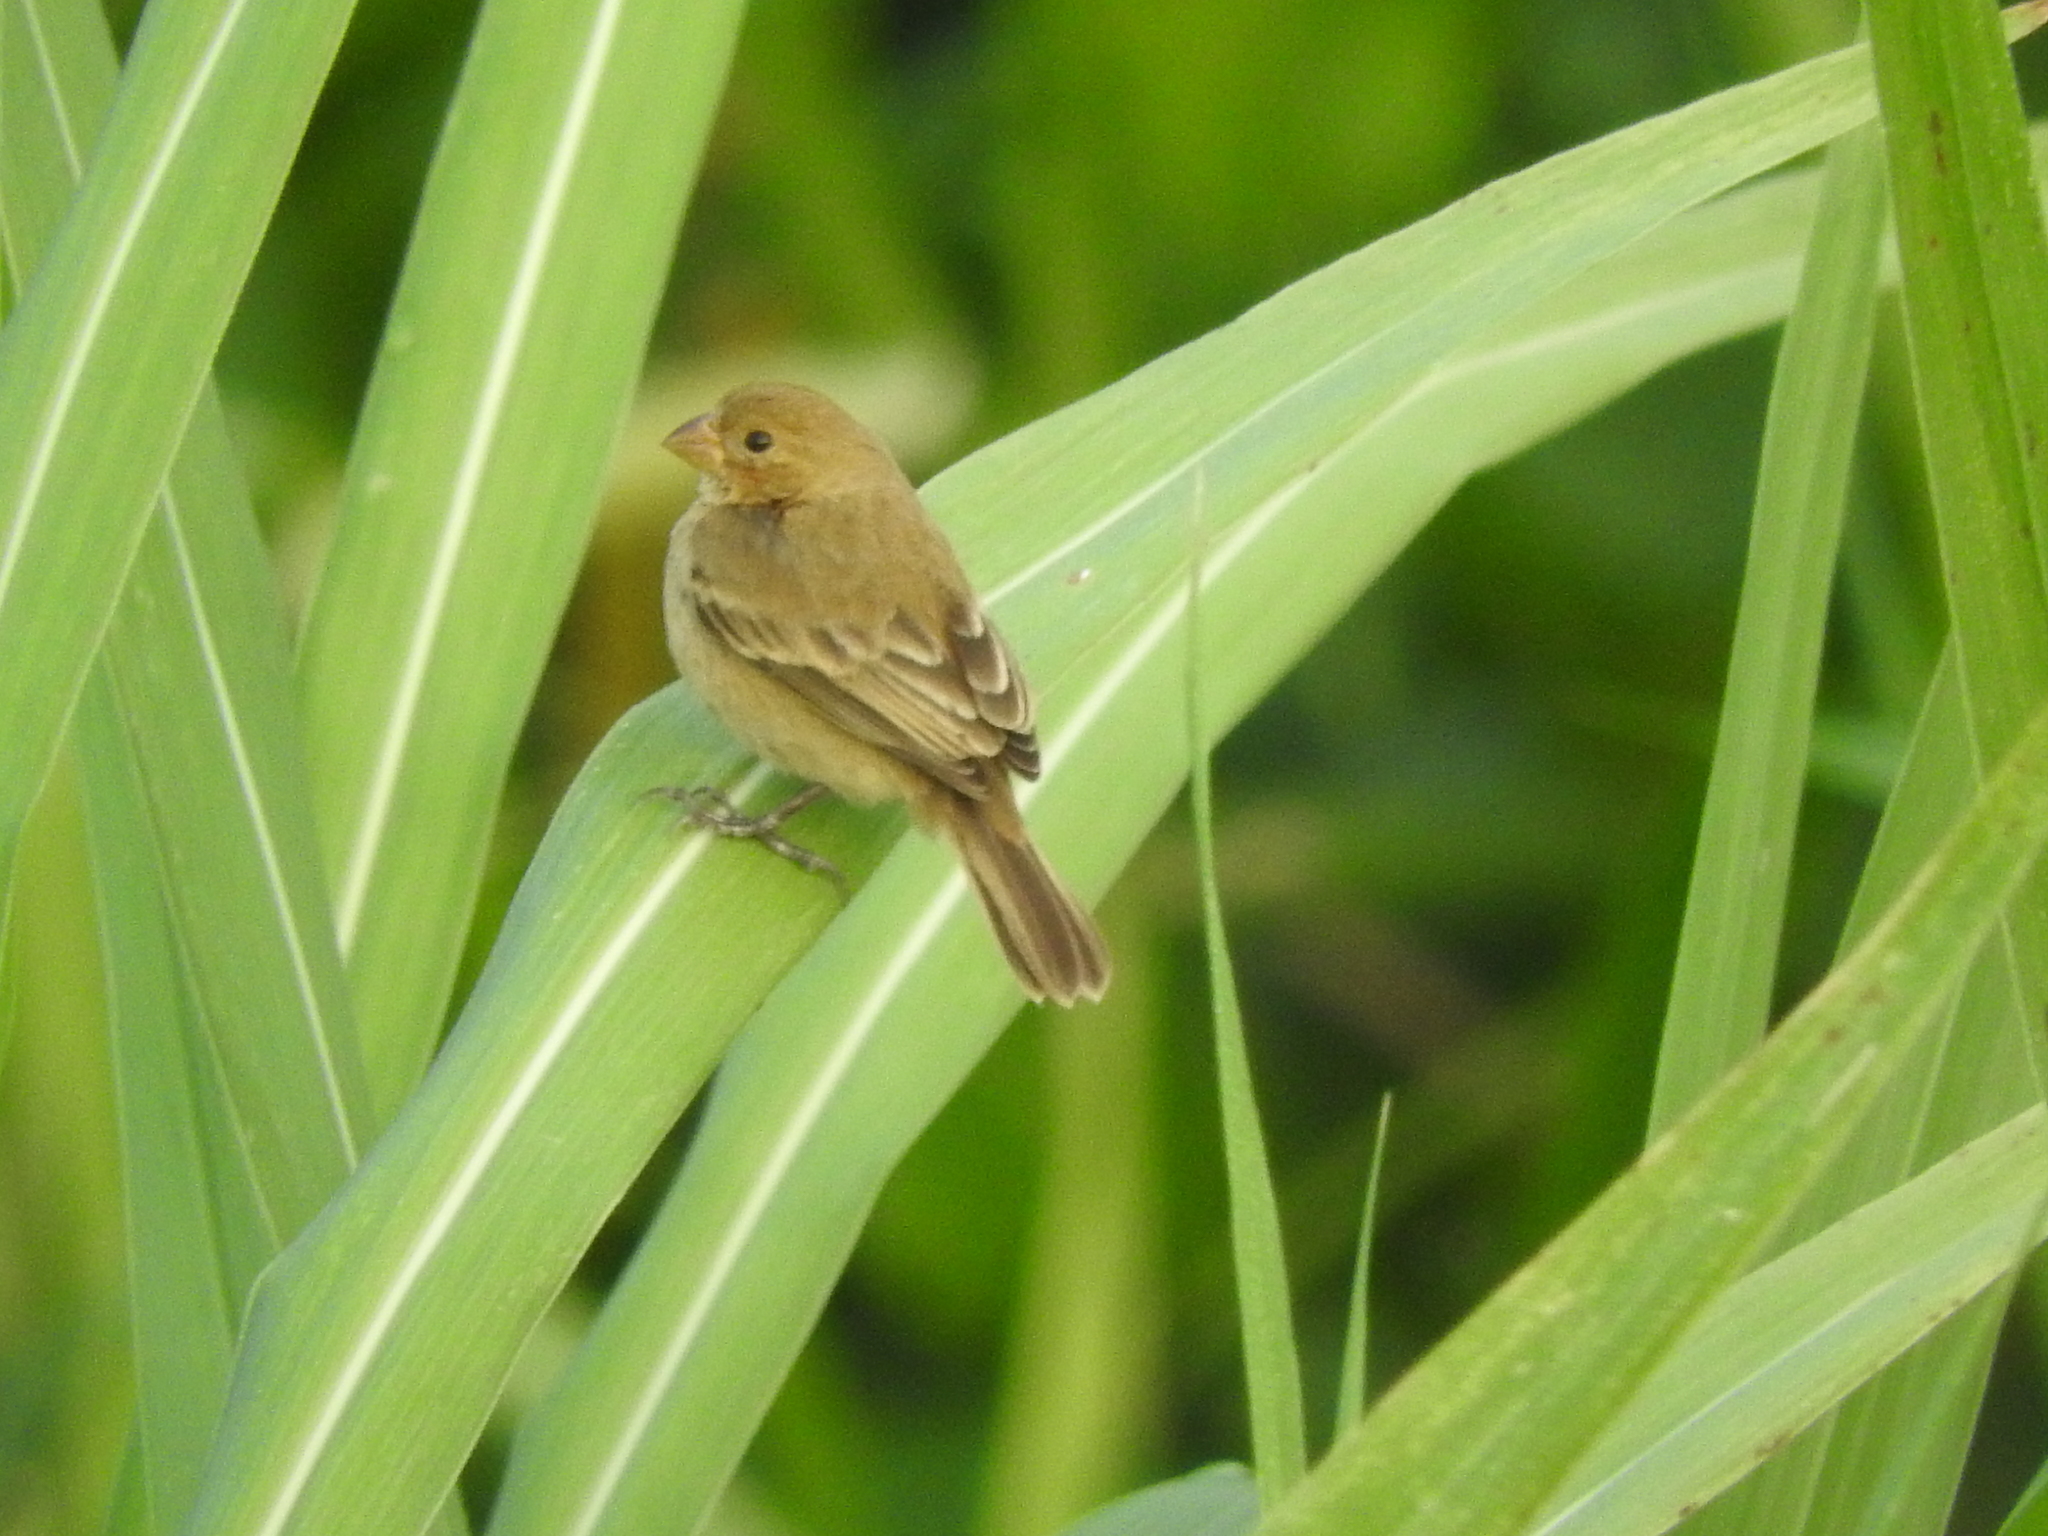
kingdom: Animalia
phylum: Chordata
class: Aves
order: Passeriformes
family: Thraupidae
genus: Sporophila
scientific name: Sporophila morelleti
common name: Morelet's seedeater
